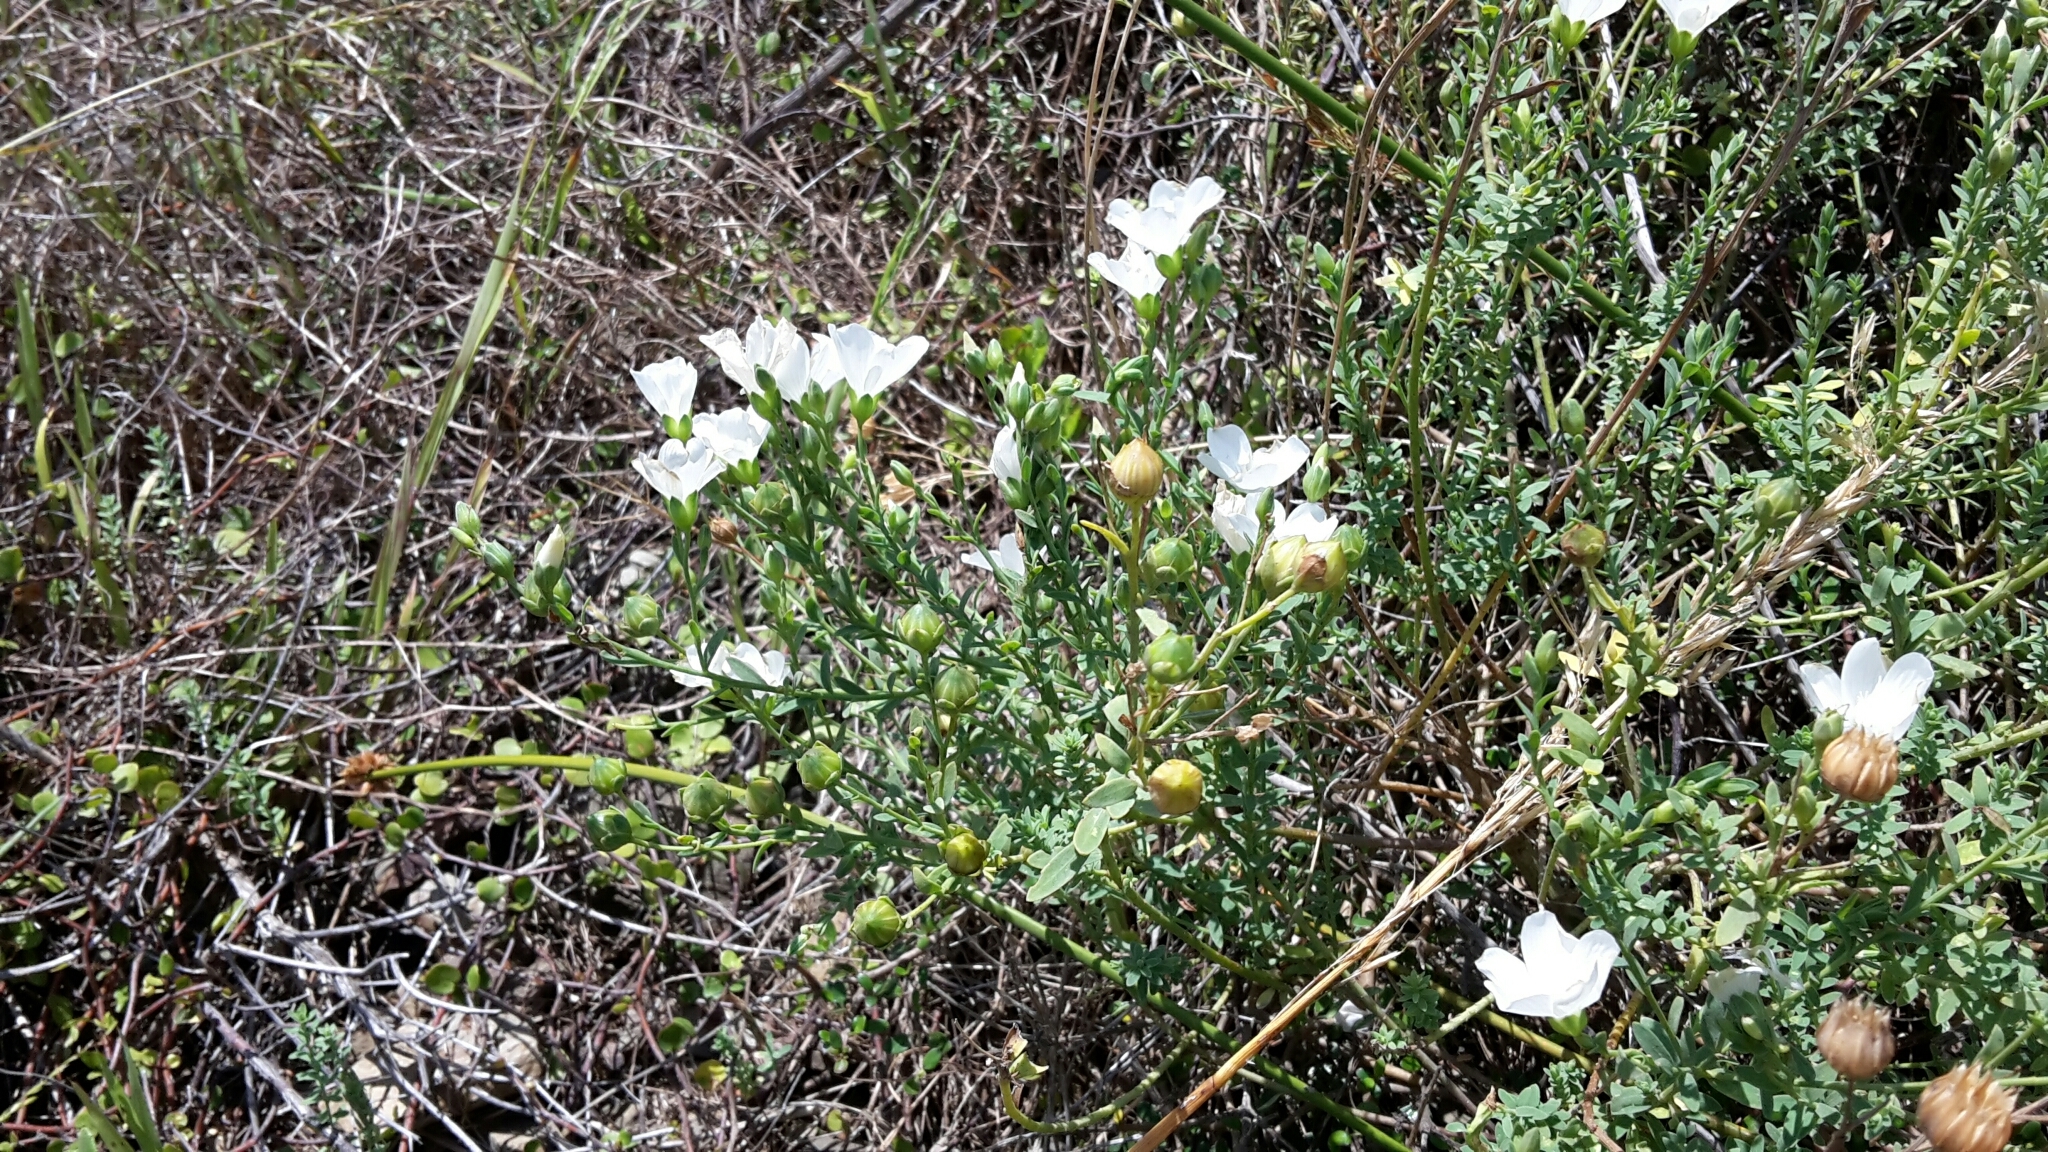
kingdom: Plantae
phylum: Tracheophyta
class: Magnoliopsida
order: Malpighiales
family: Linaceae
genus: Linum
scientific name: Linum monogynum
